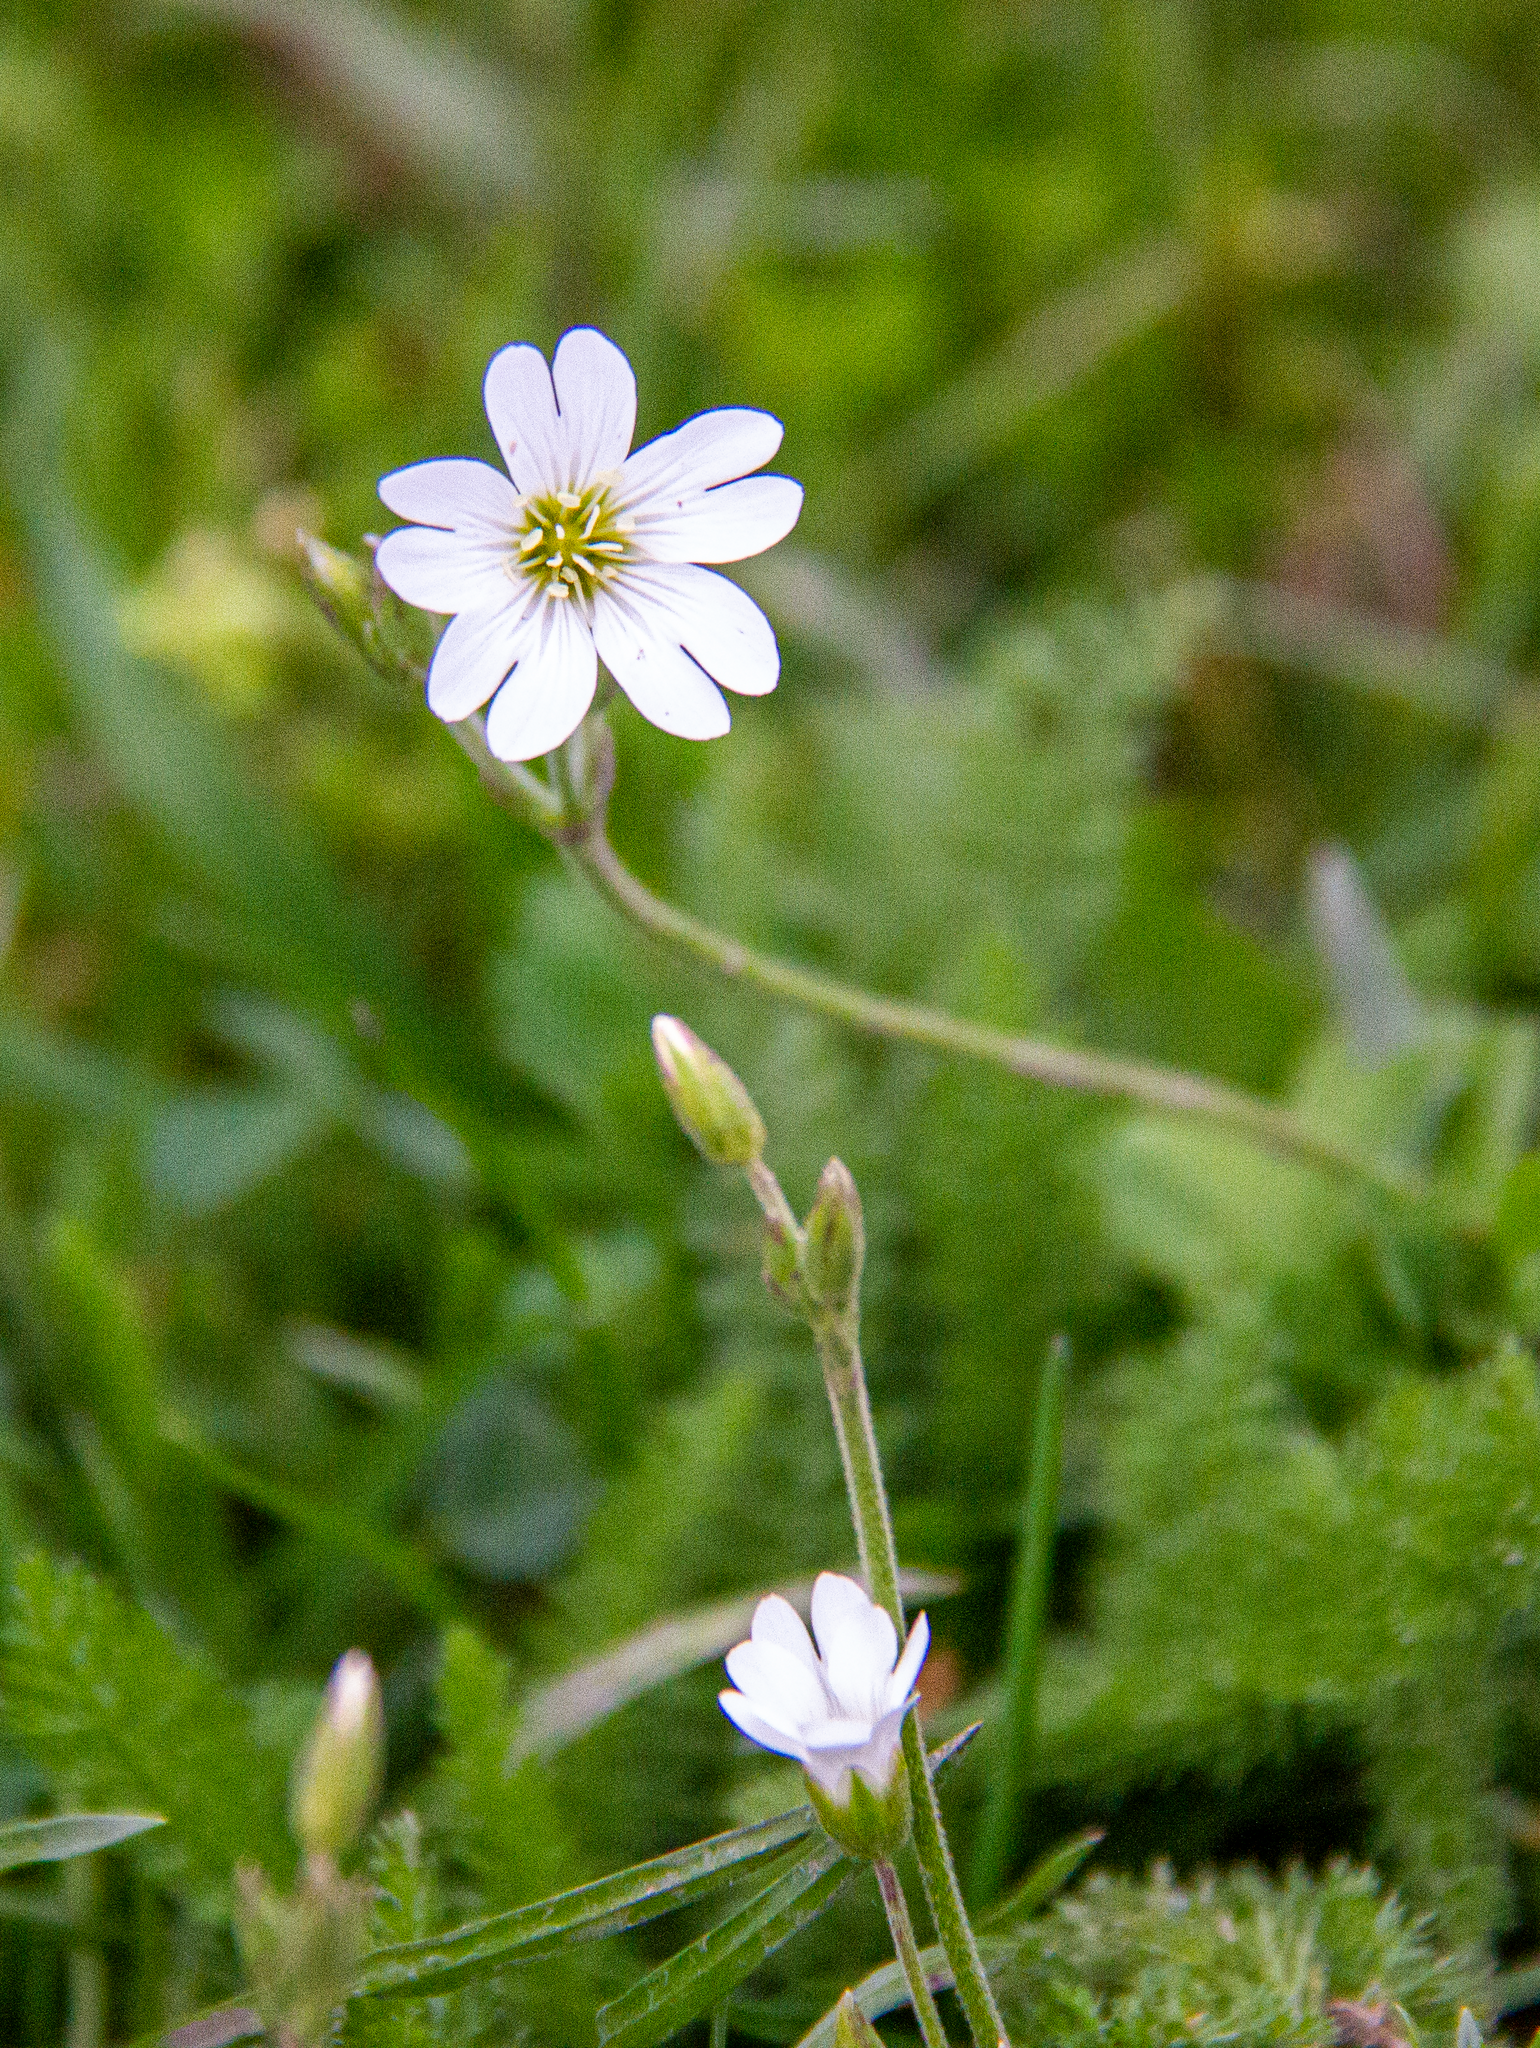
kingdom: Plantae
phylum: Tracheophyta
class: Magnoliopsida
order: Caryophyllales
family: Caryophyllaceae
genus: Cerastium
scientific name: Cerastium arvense
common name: Field mouse-ear
